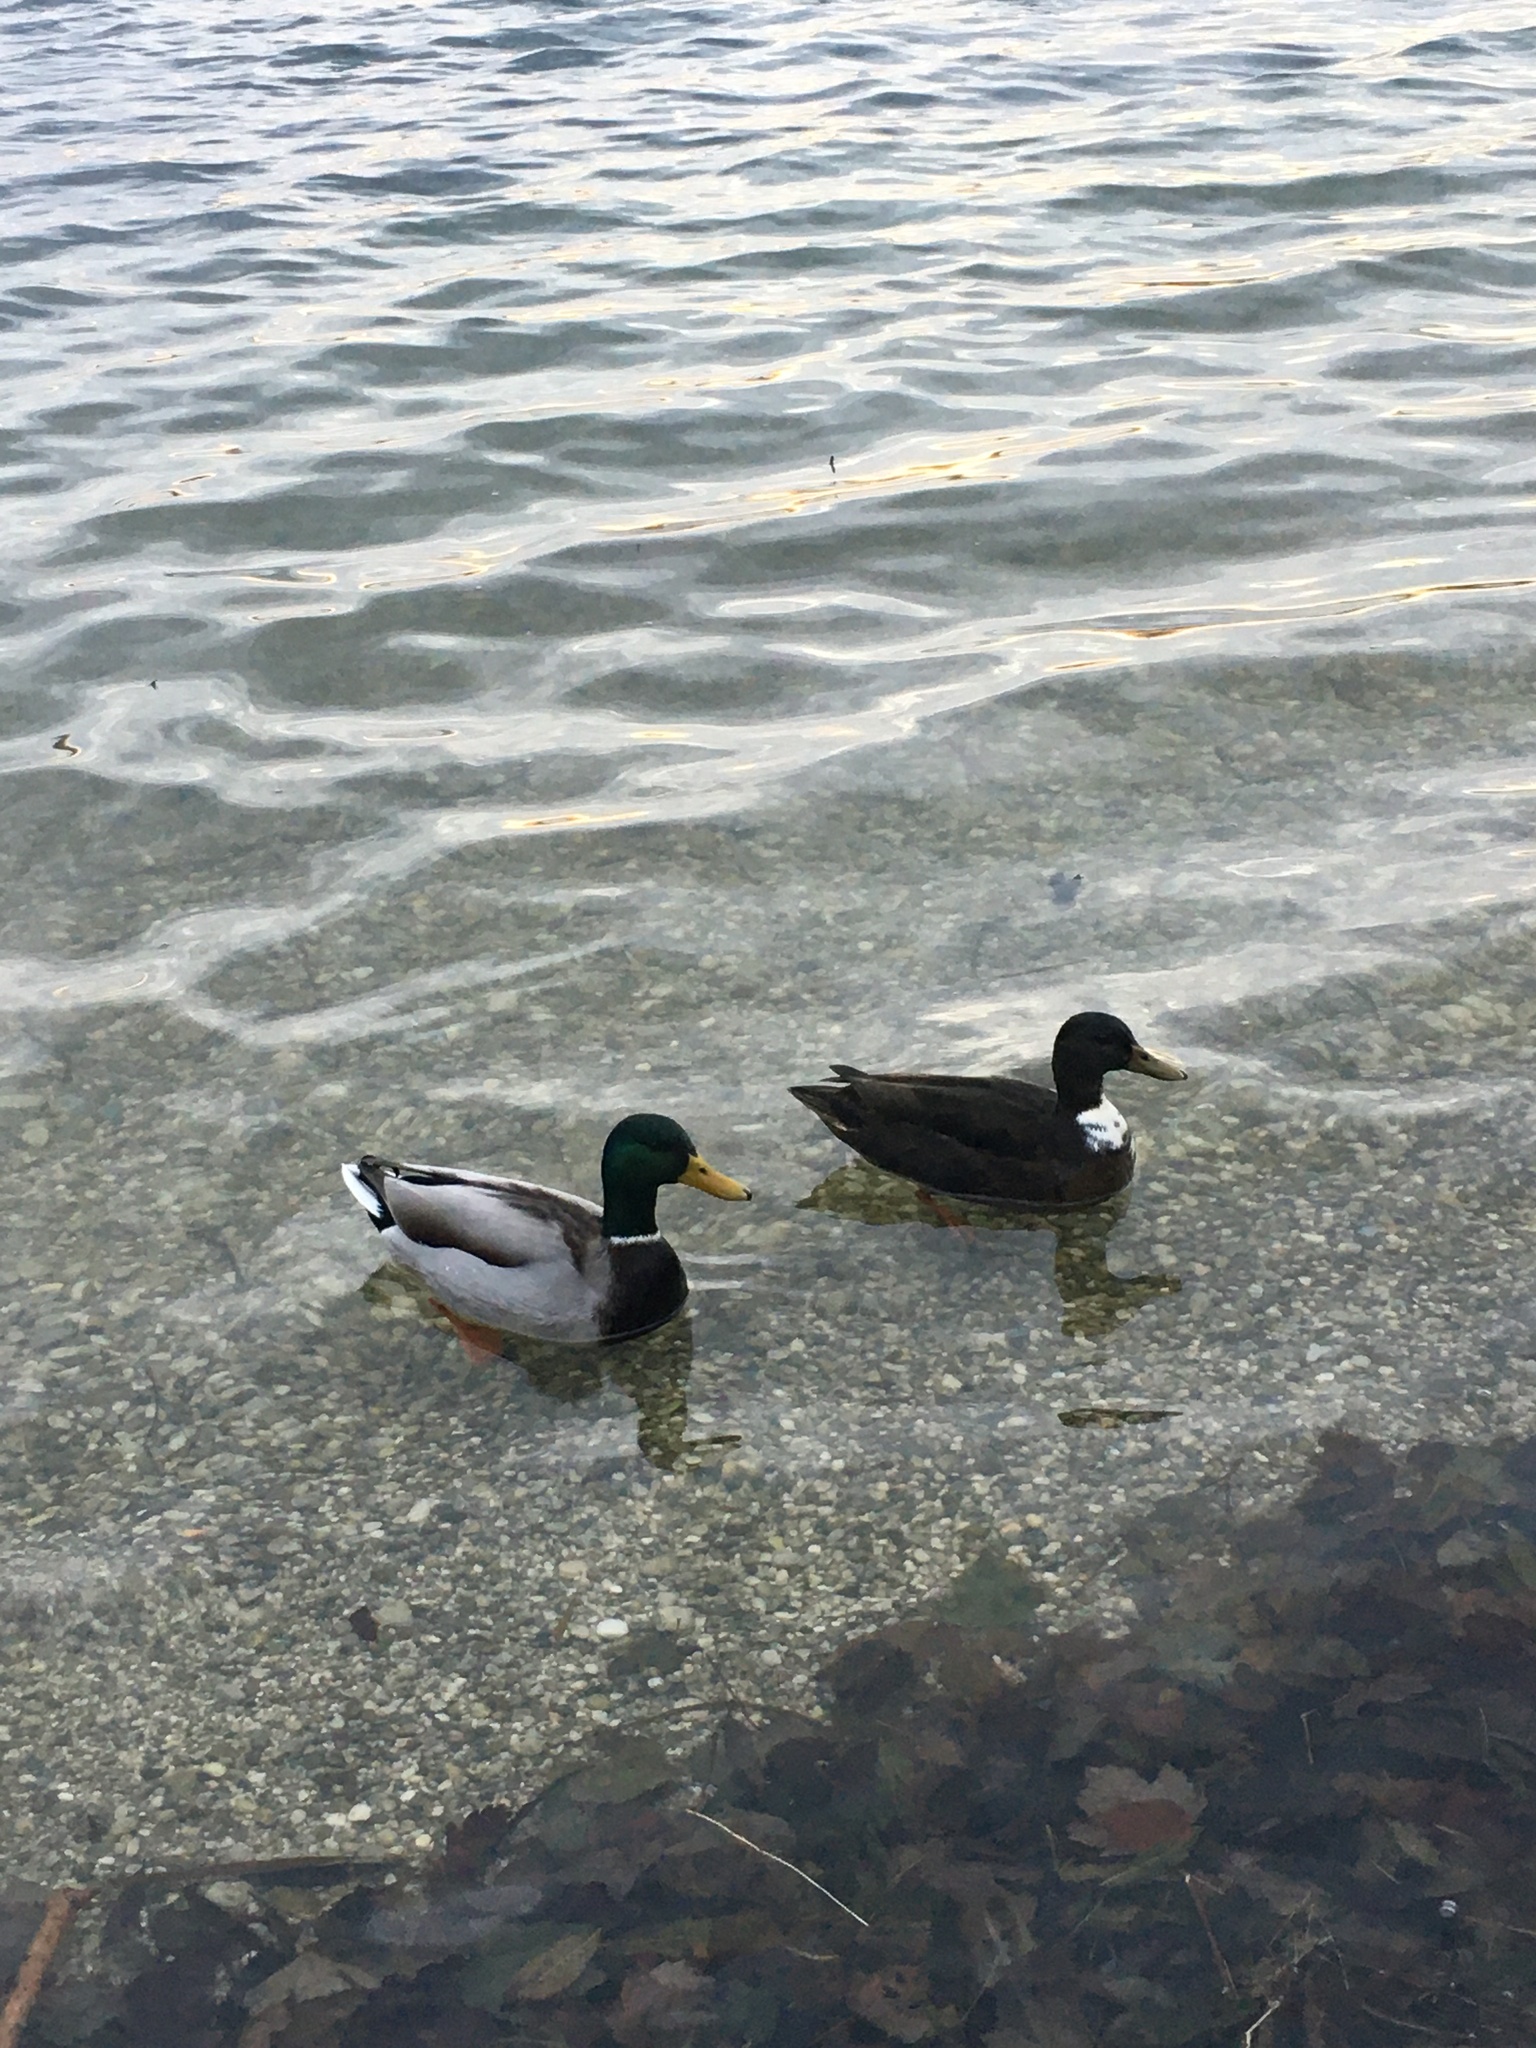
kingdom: Animalia
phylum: Chordata
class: Aves
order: Anseriformes
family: Anatidae
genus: Anas
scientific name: Anas platyrhynchos
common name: Mallard
